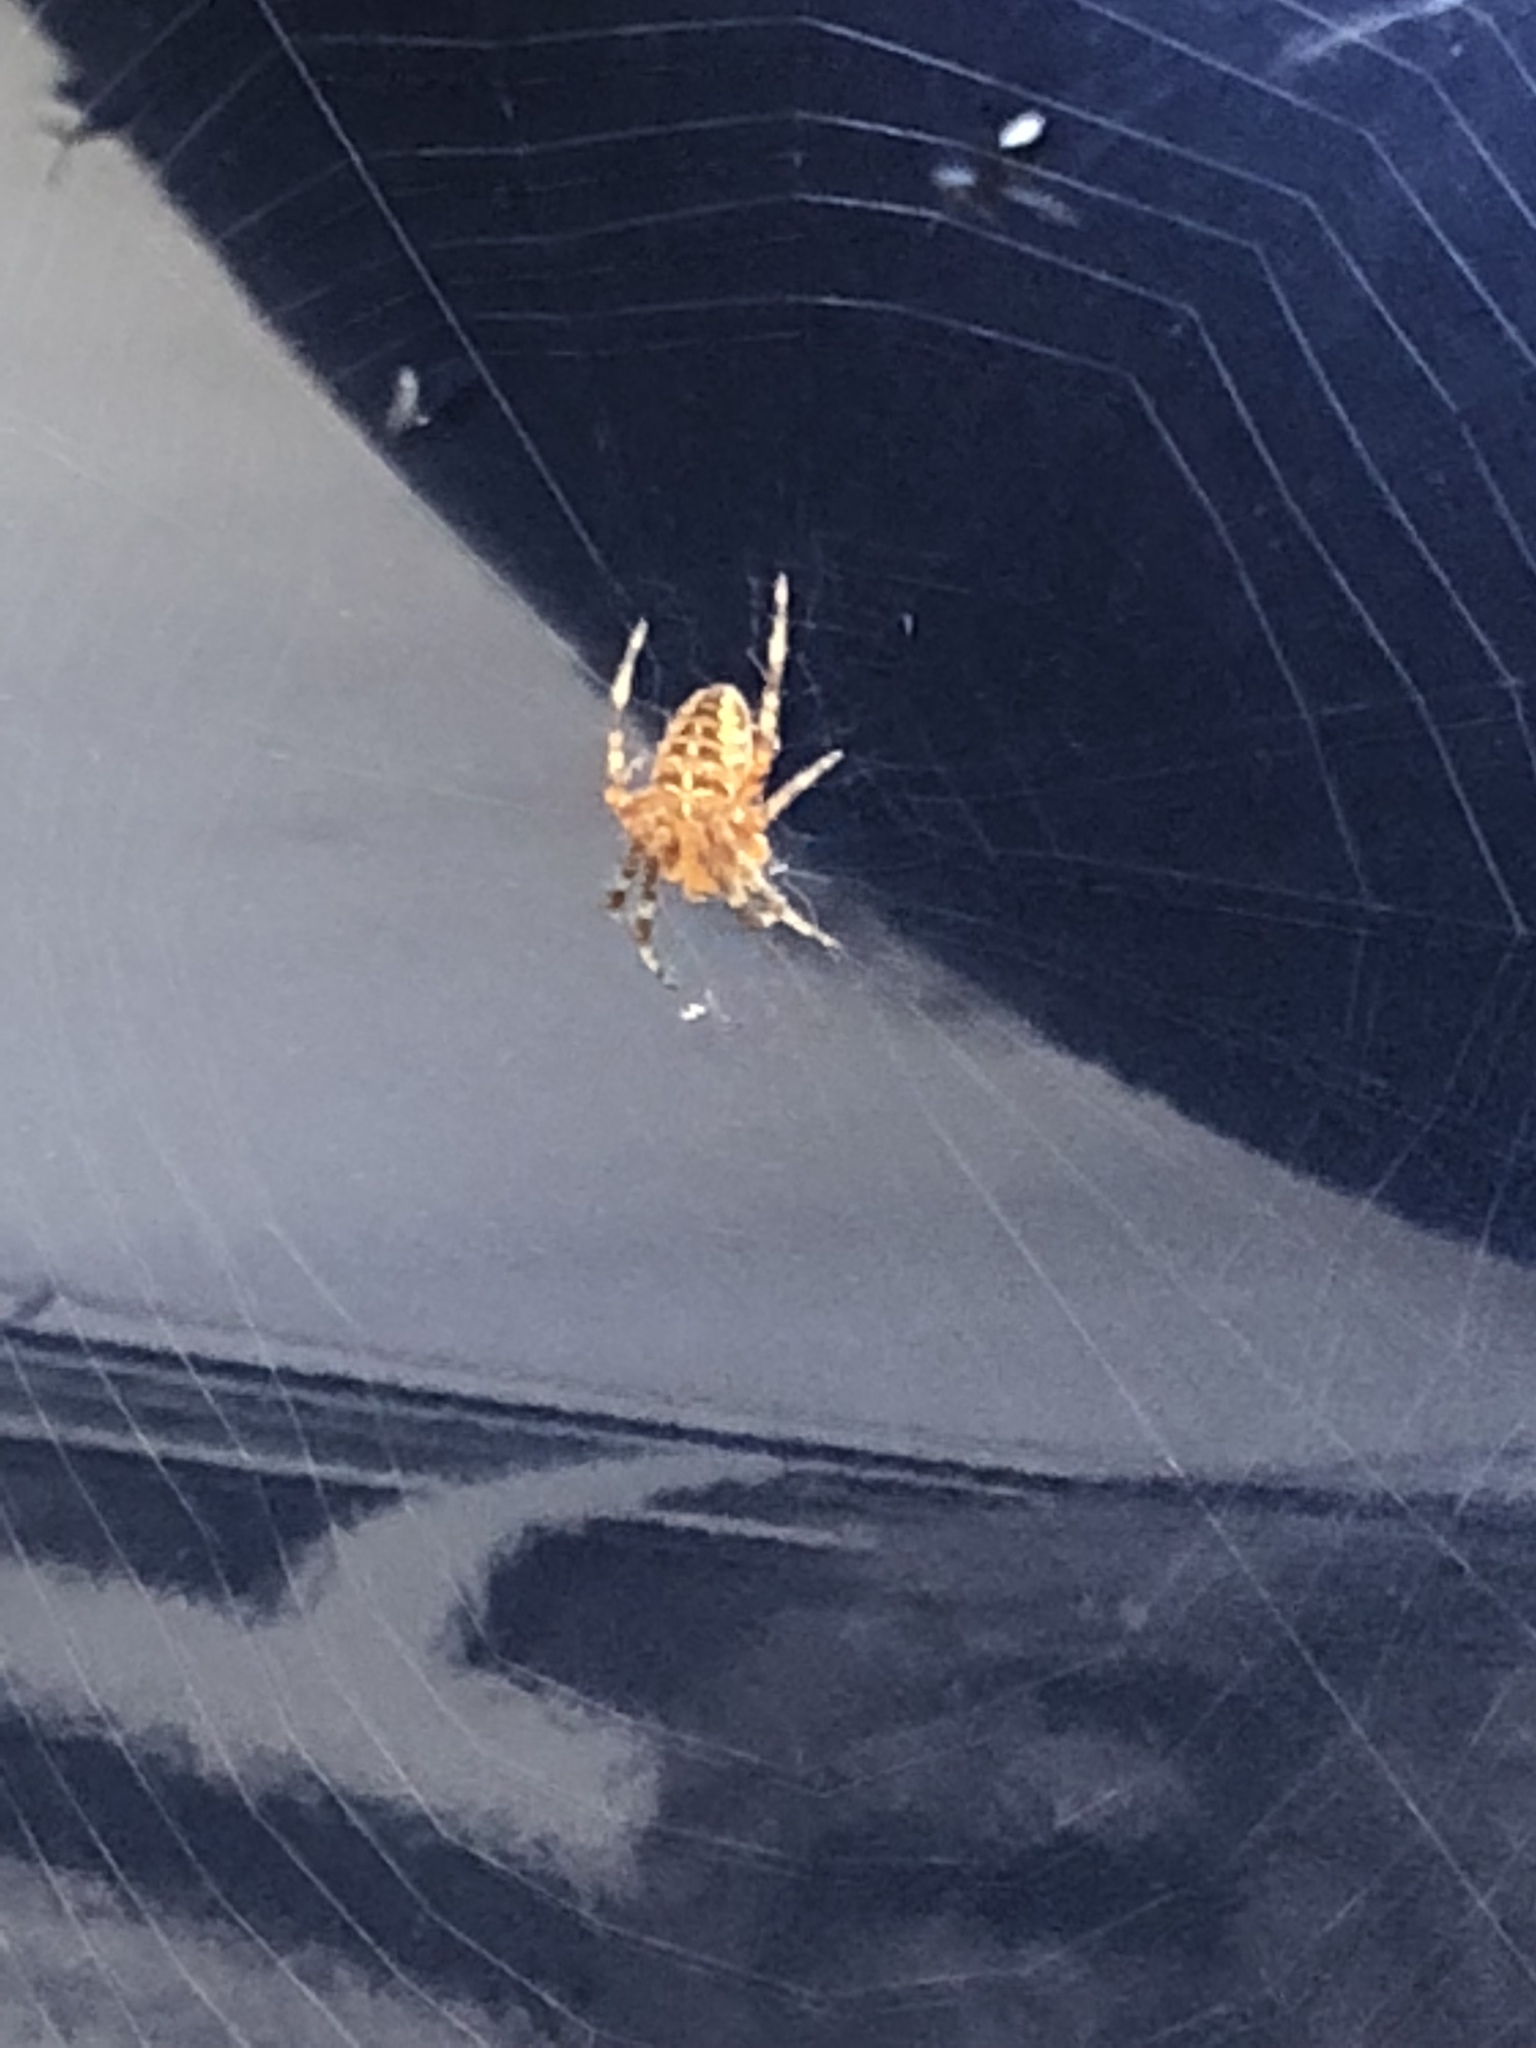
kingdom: Animalia
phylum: Arthropoda
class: Arachnida
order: Araneae
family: Araneidae
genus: Araneus
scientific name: Araneus diadematus
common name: Cross orbweaver
